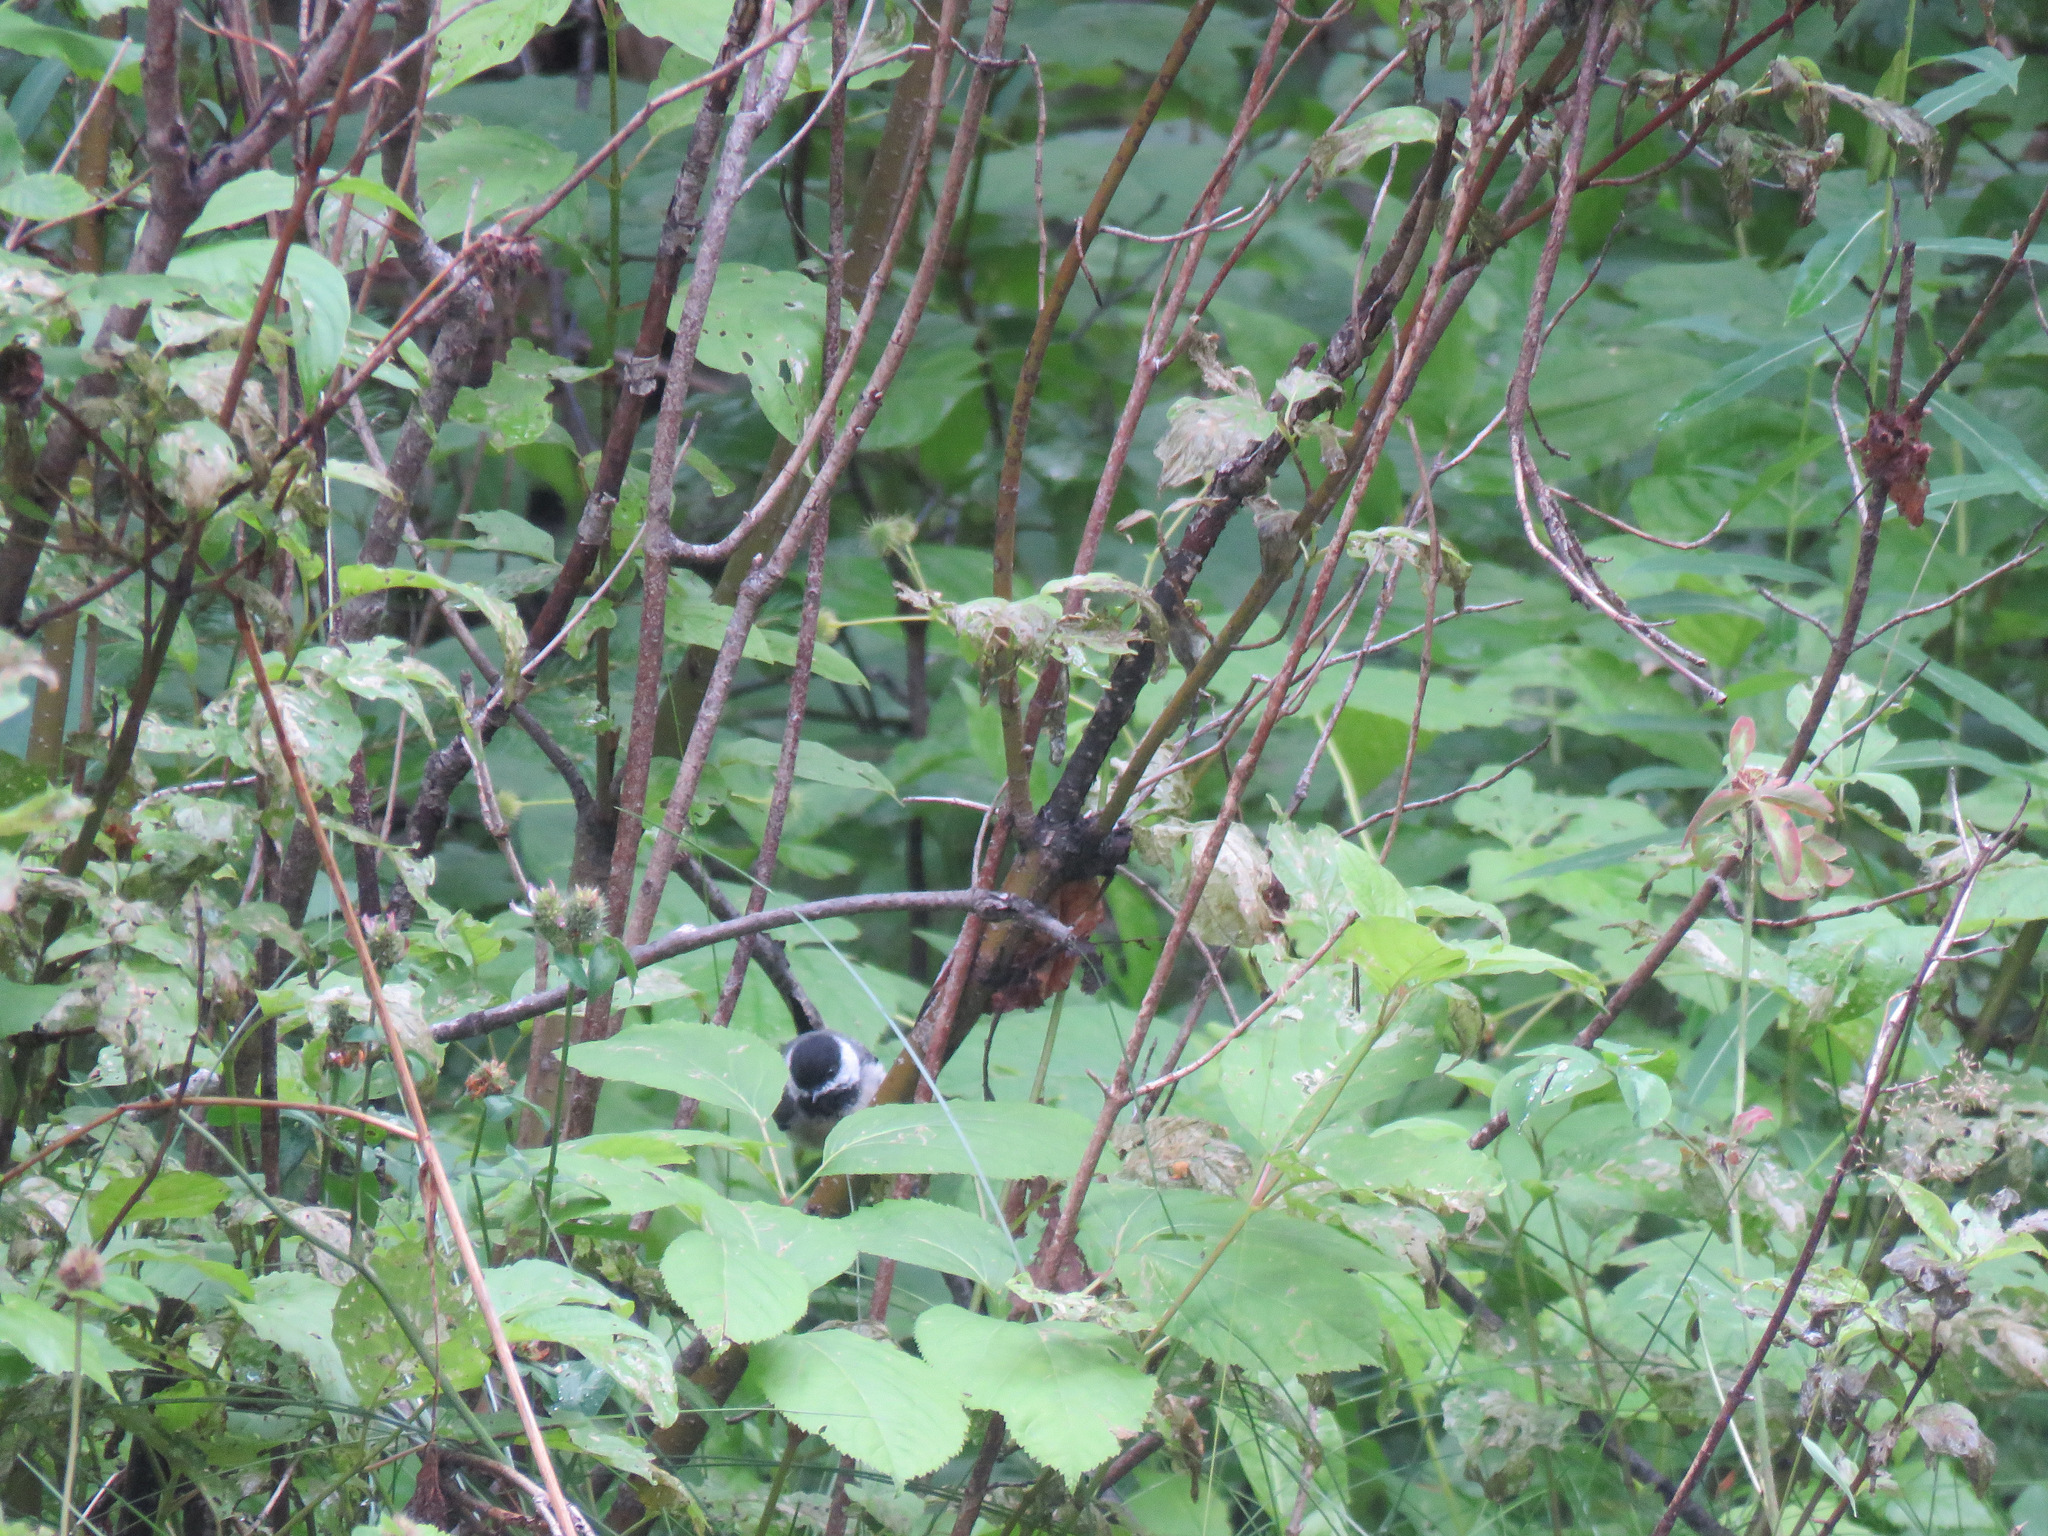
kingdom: Animalia
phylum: Chordata
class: Aves
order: Passeriformes
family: Paridae
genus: Poecile
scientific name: Poecile atricapillus
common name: Black-capped chickadee
